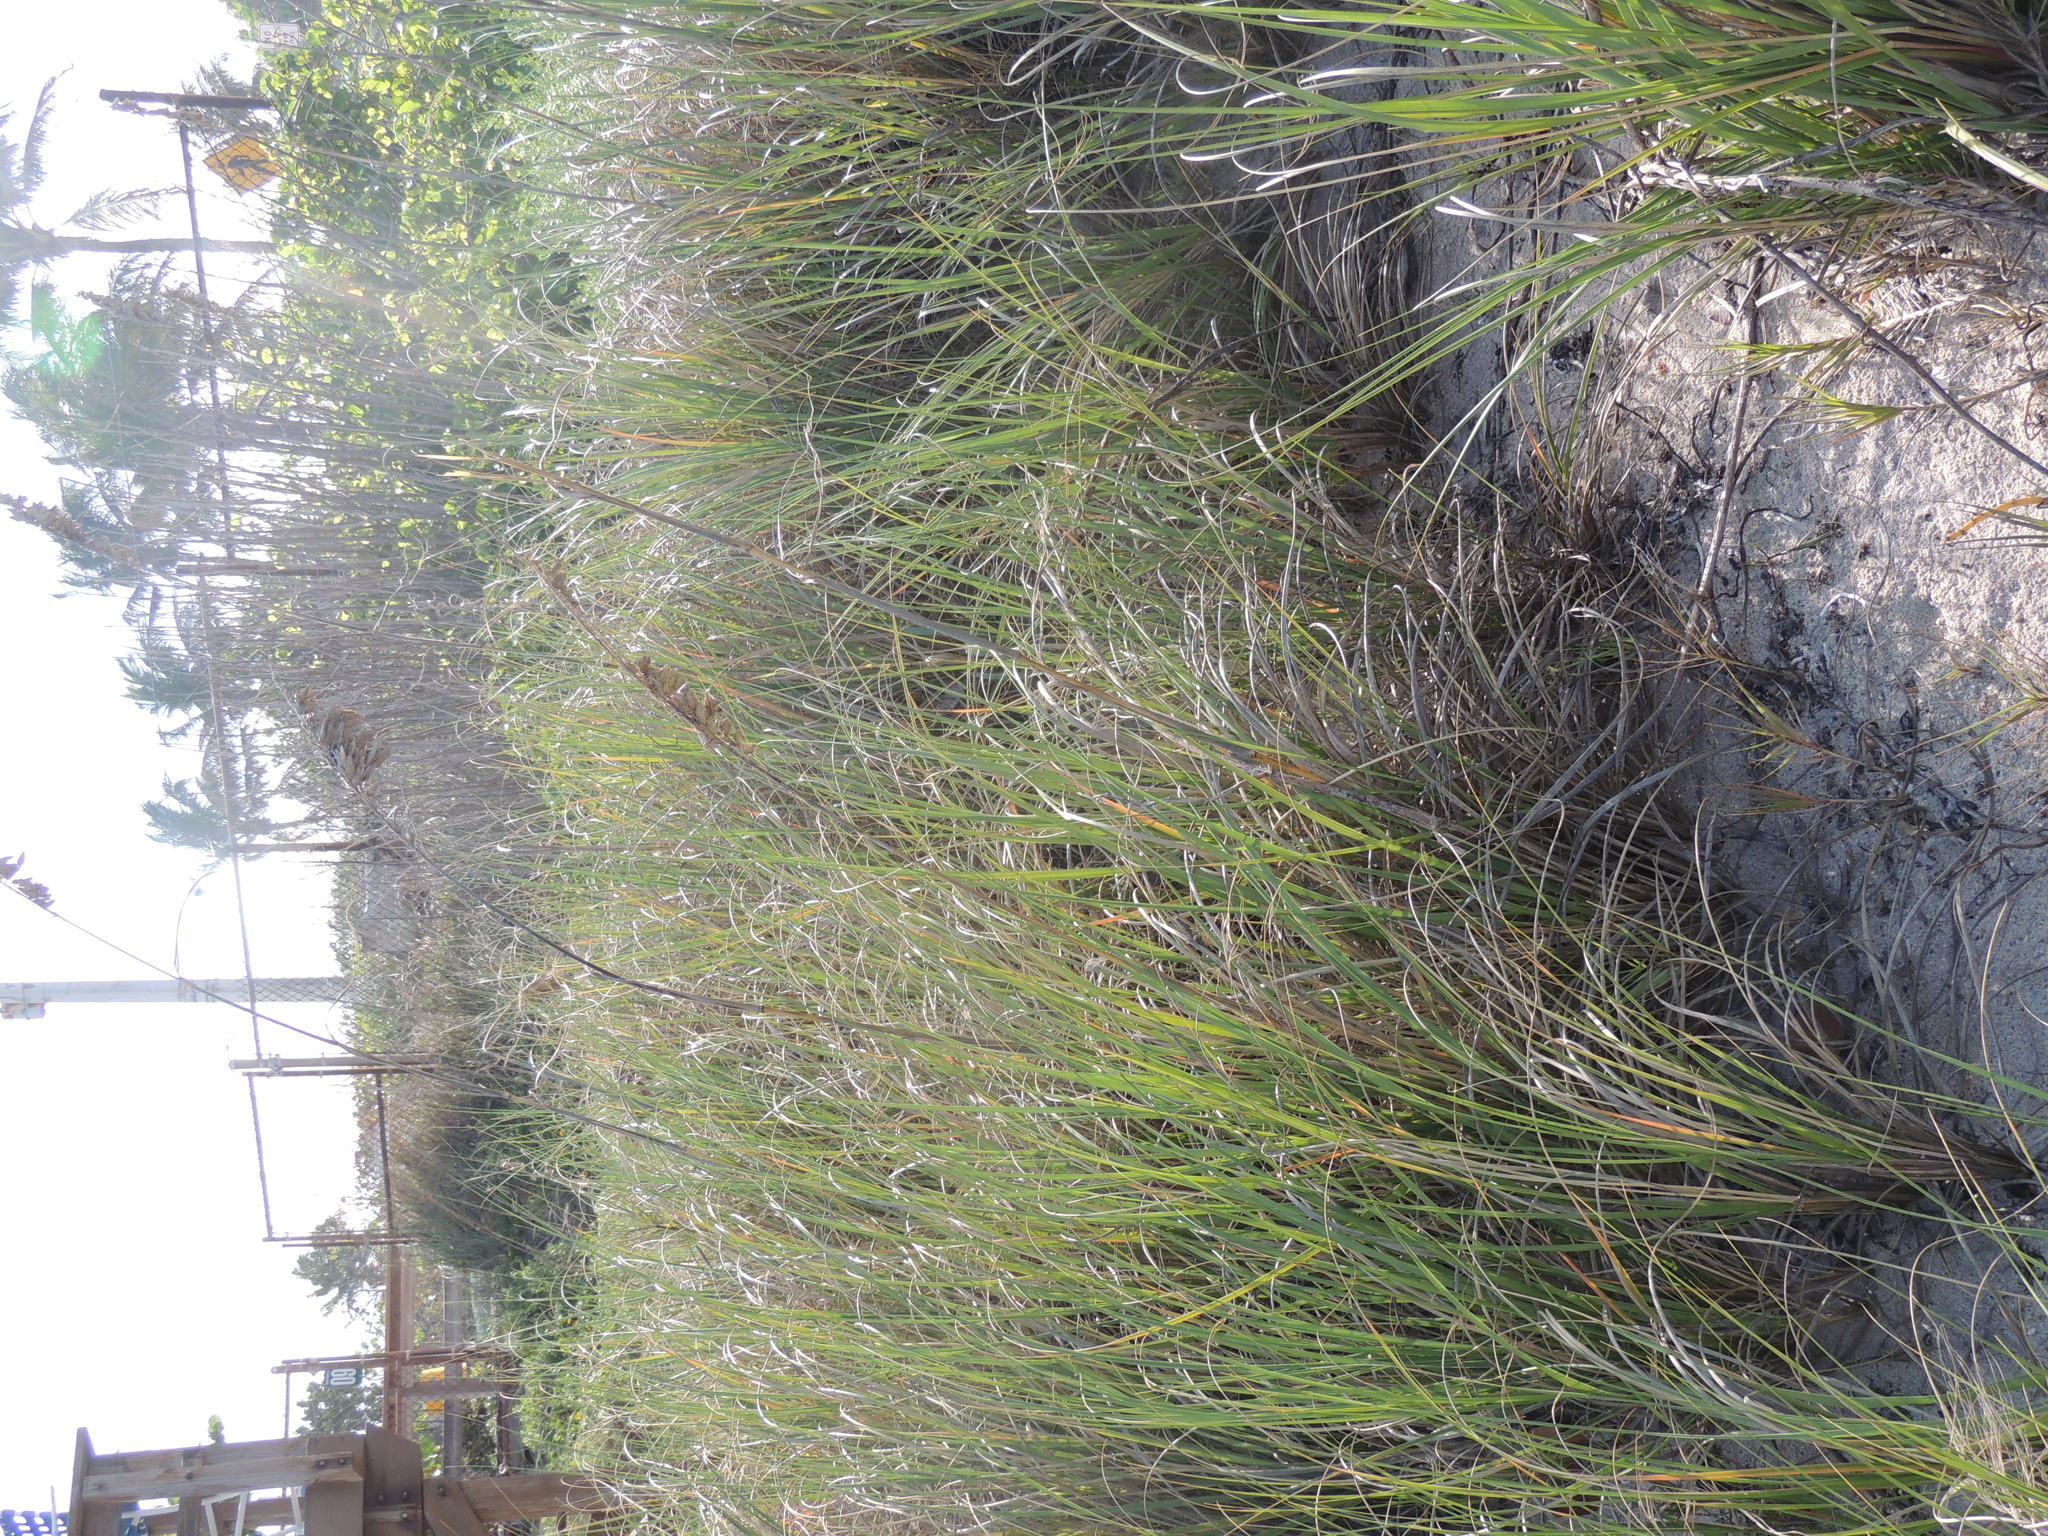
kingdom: Plantae
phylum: Tracheophyta
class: Liliopsida
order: Poales
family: Poaceae
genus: Uniola
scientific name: Uniola paniculata
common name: Seaside-oats
